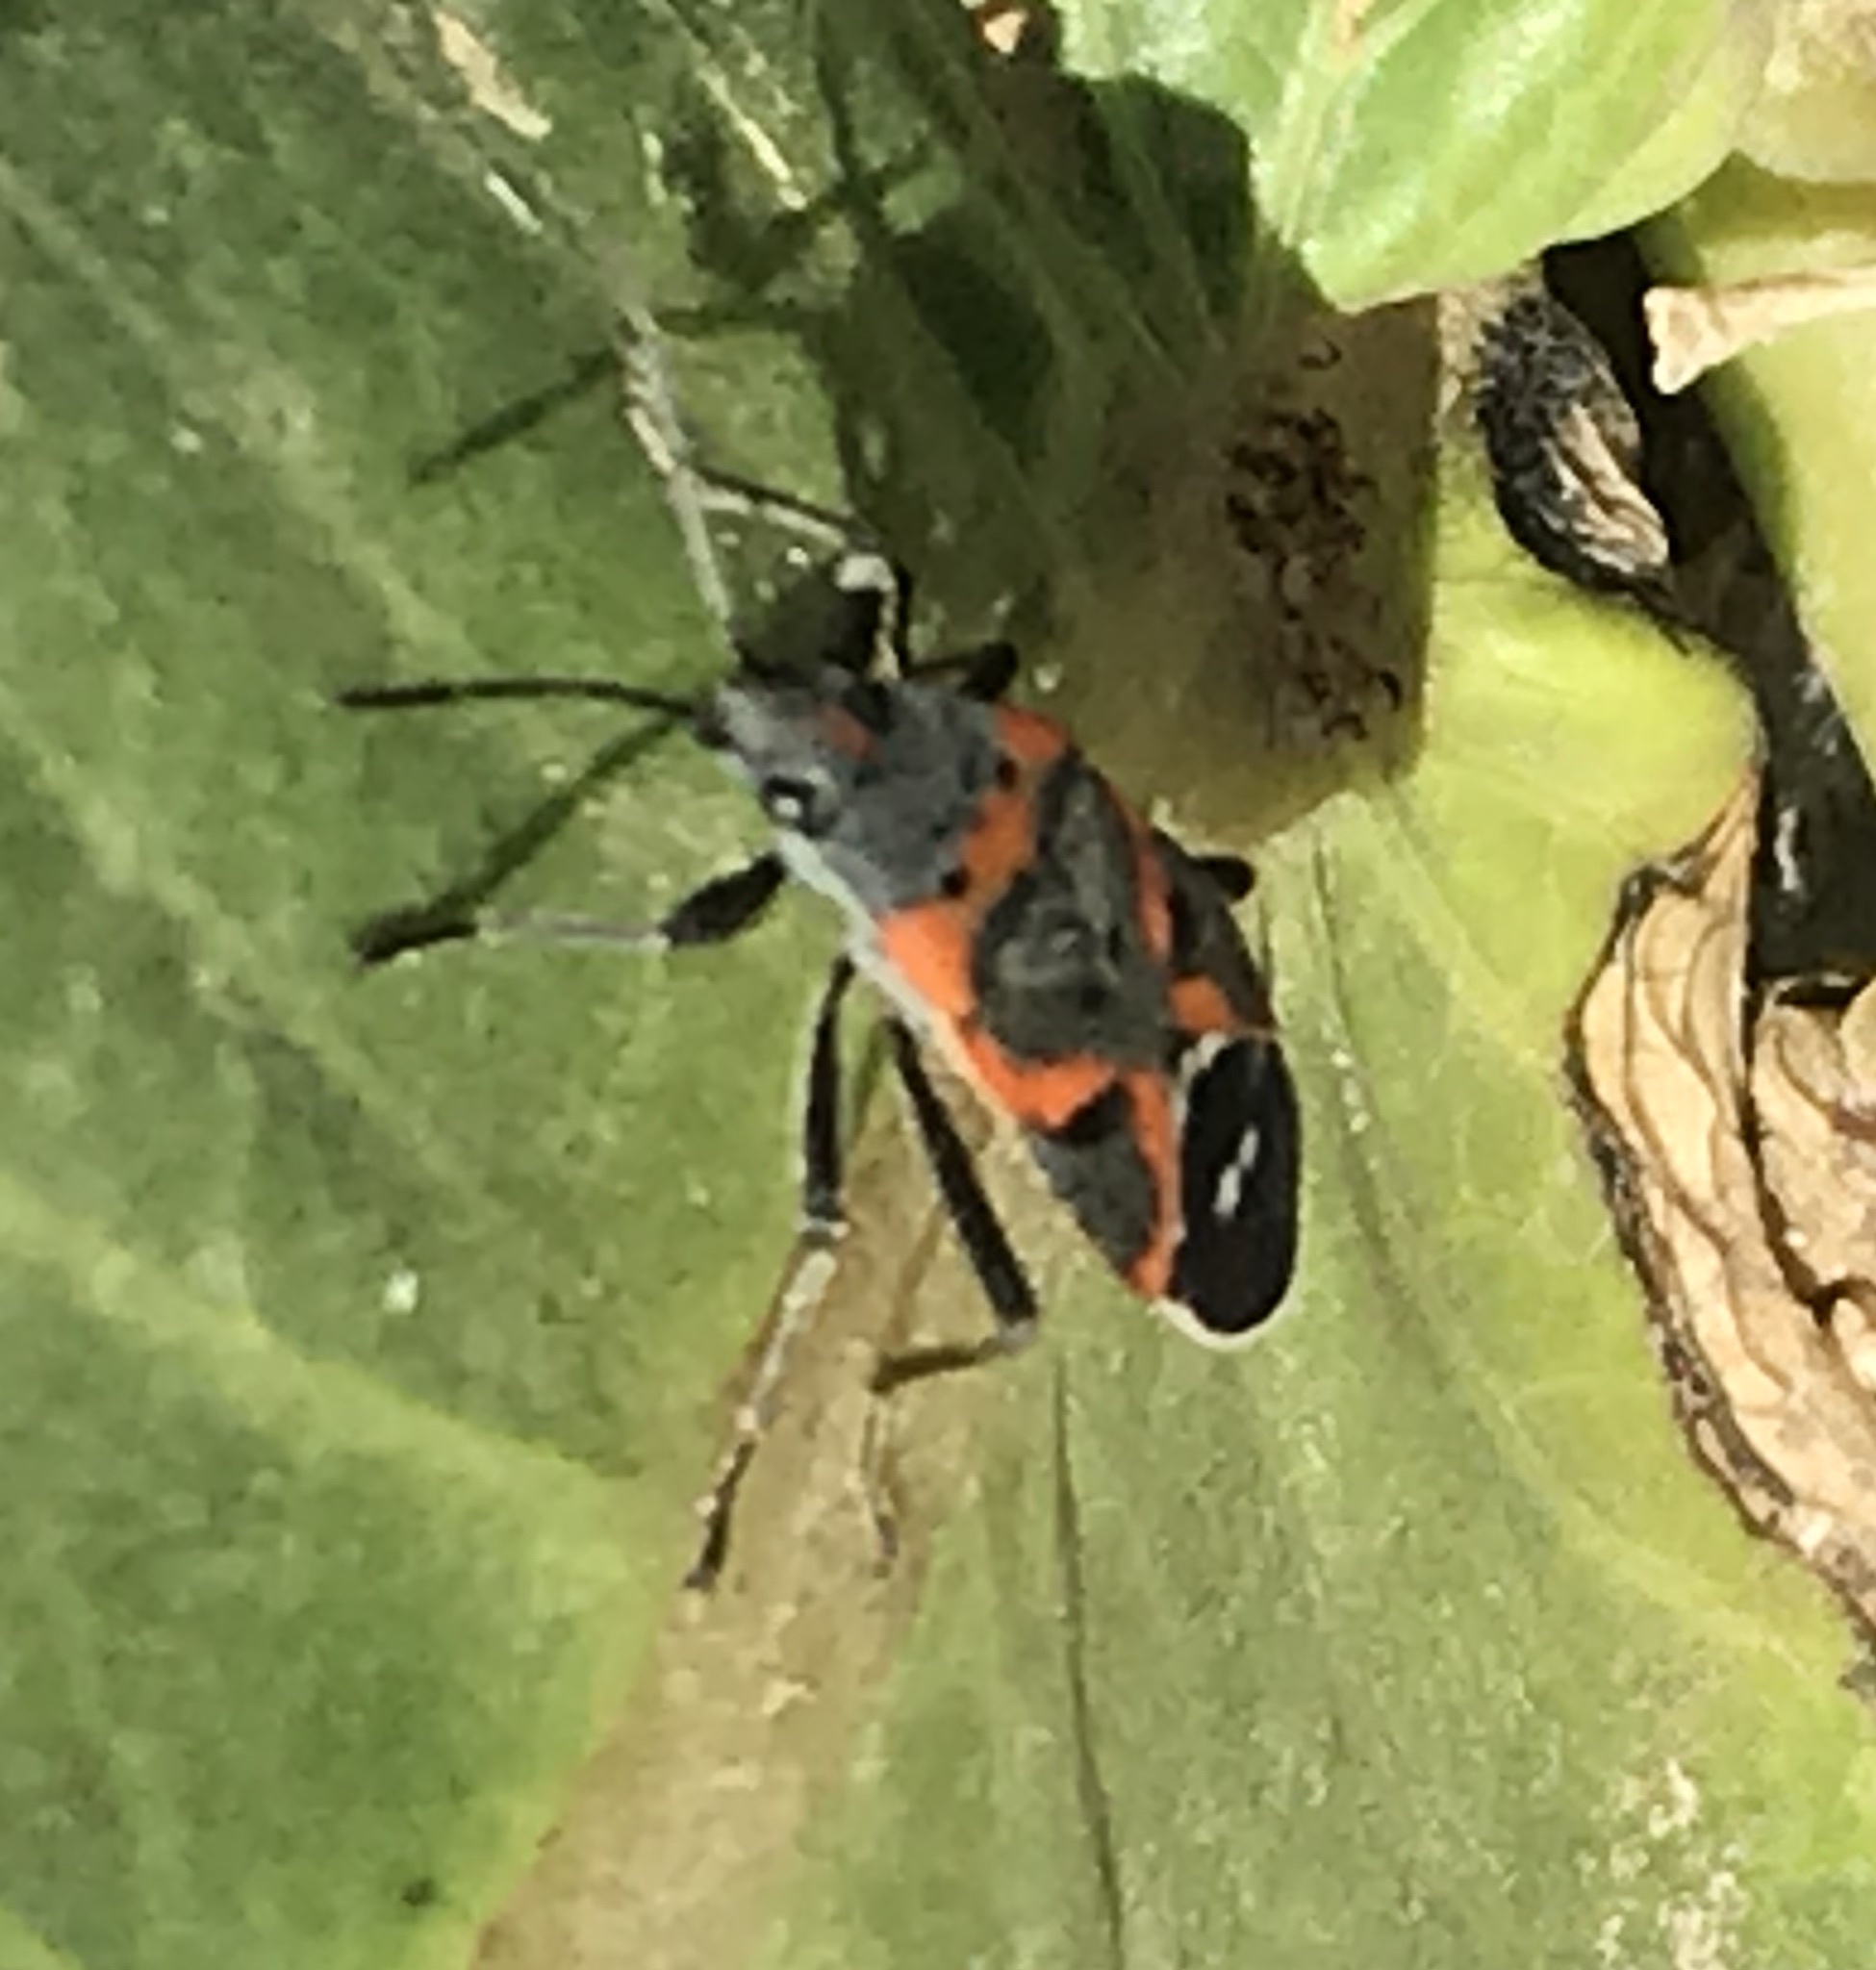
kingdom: Animalia
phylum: Arthropoda
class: Insecta
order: Hemiptera
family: Lygaeidae
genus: Lygaeus
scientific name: Lygaeus kalmii
